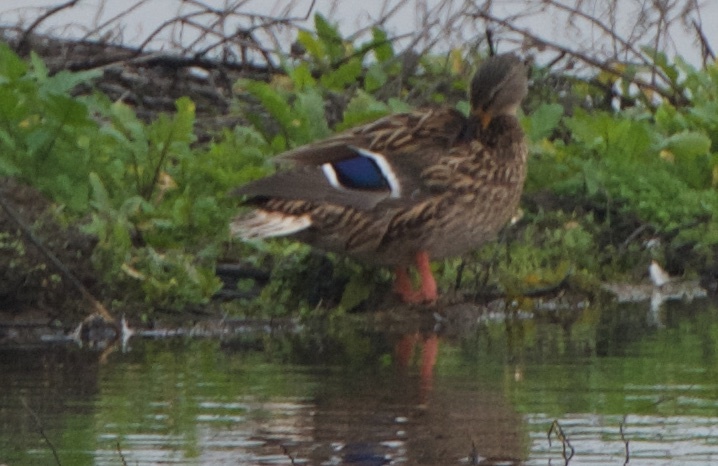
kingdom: Animalia
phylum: Chordata
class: Aves
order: Anseriformes
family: Anatidae
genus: Anas
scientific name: Anas platyrhynchos
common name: Mallard
